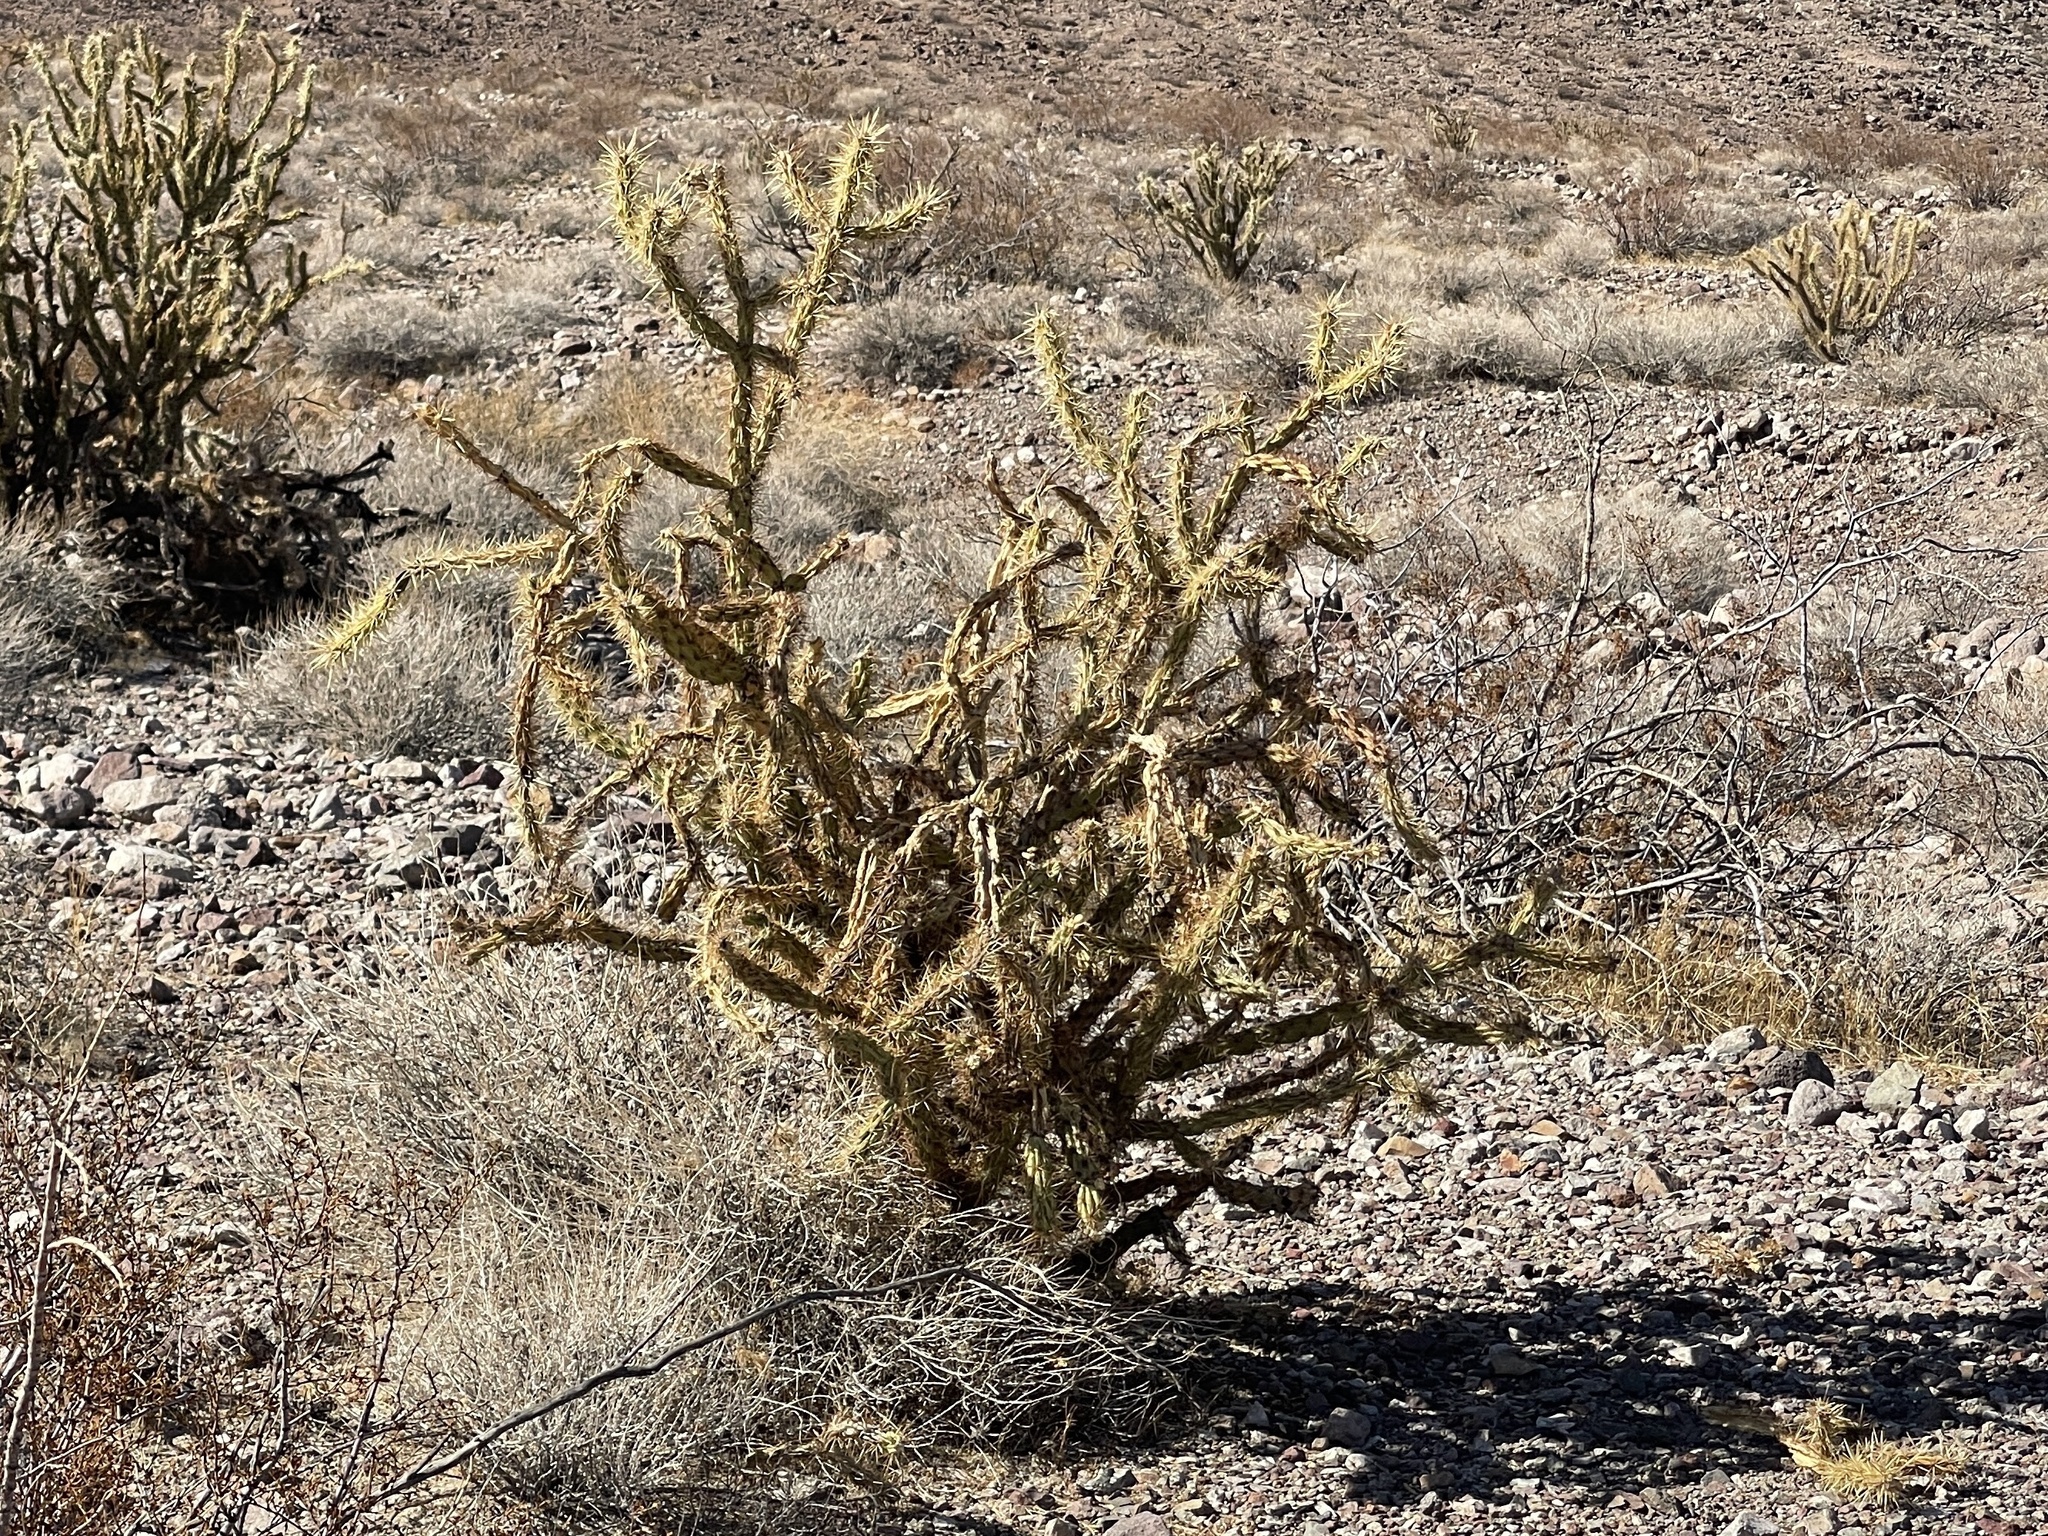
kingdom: Plantae
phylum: Tracheophyta
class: Magnoliopsida
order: Caryophyllales
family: Cactaceae
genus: Cylindropuntia
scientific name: Cylindropuntia acanthocarpa
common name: Buckhorn cholla
